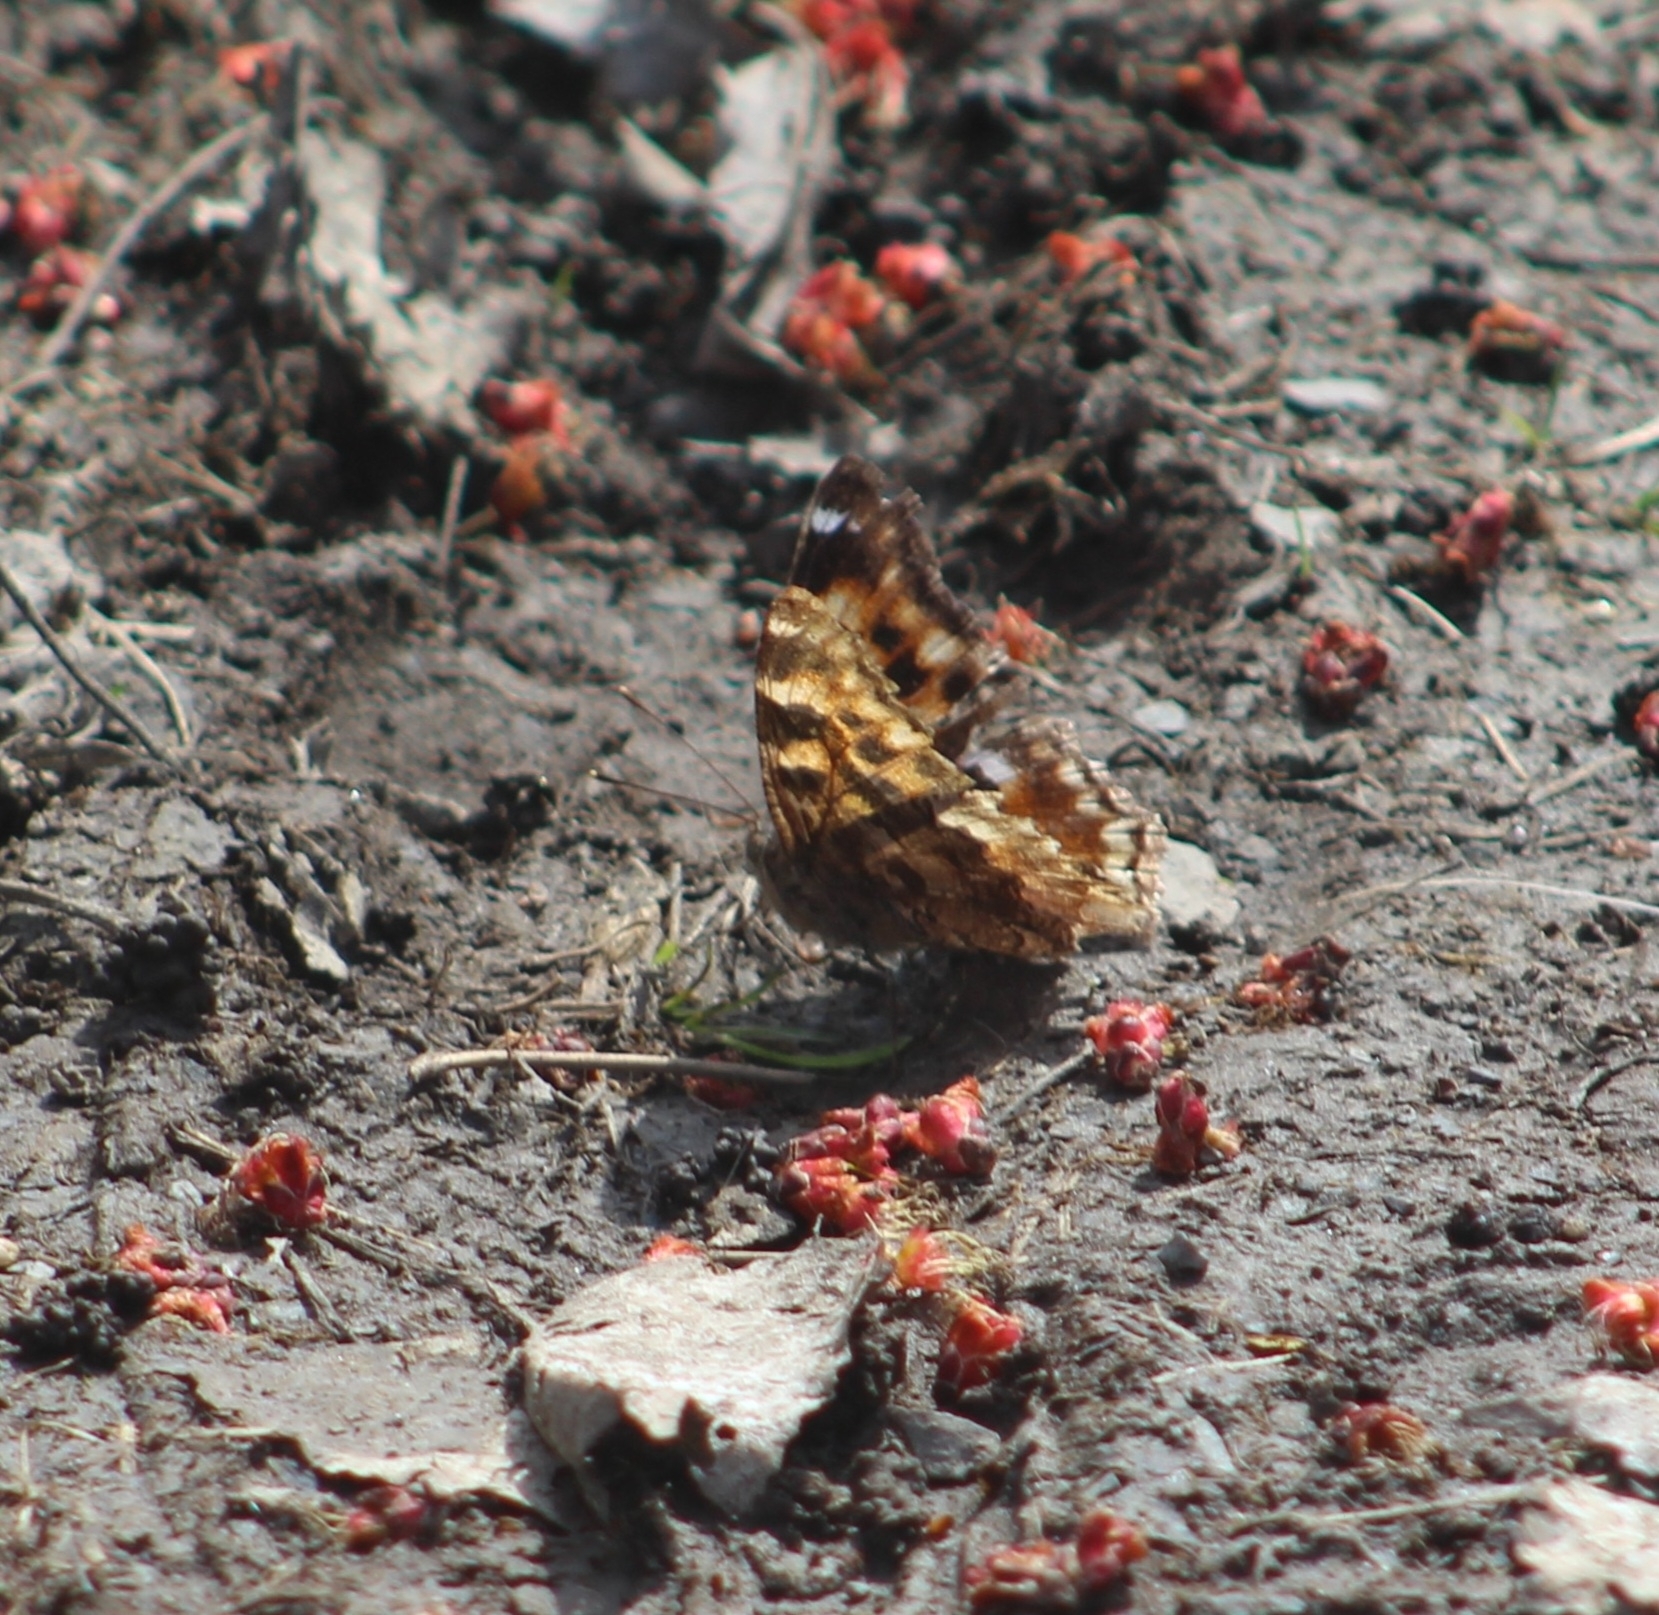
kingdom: Animalia
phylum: Arthropoda
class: Insecta
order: Lepidoptera
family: Nymphalidae
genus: Polygonia
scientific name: Polygonia vaualbum
